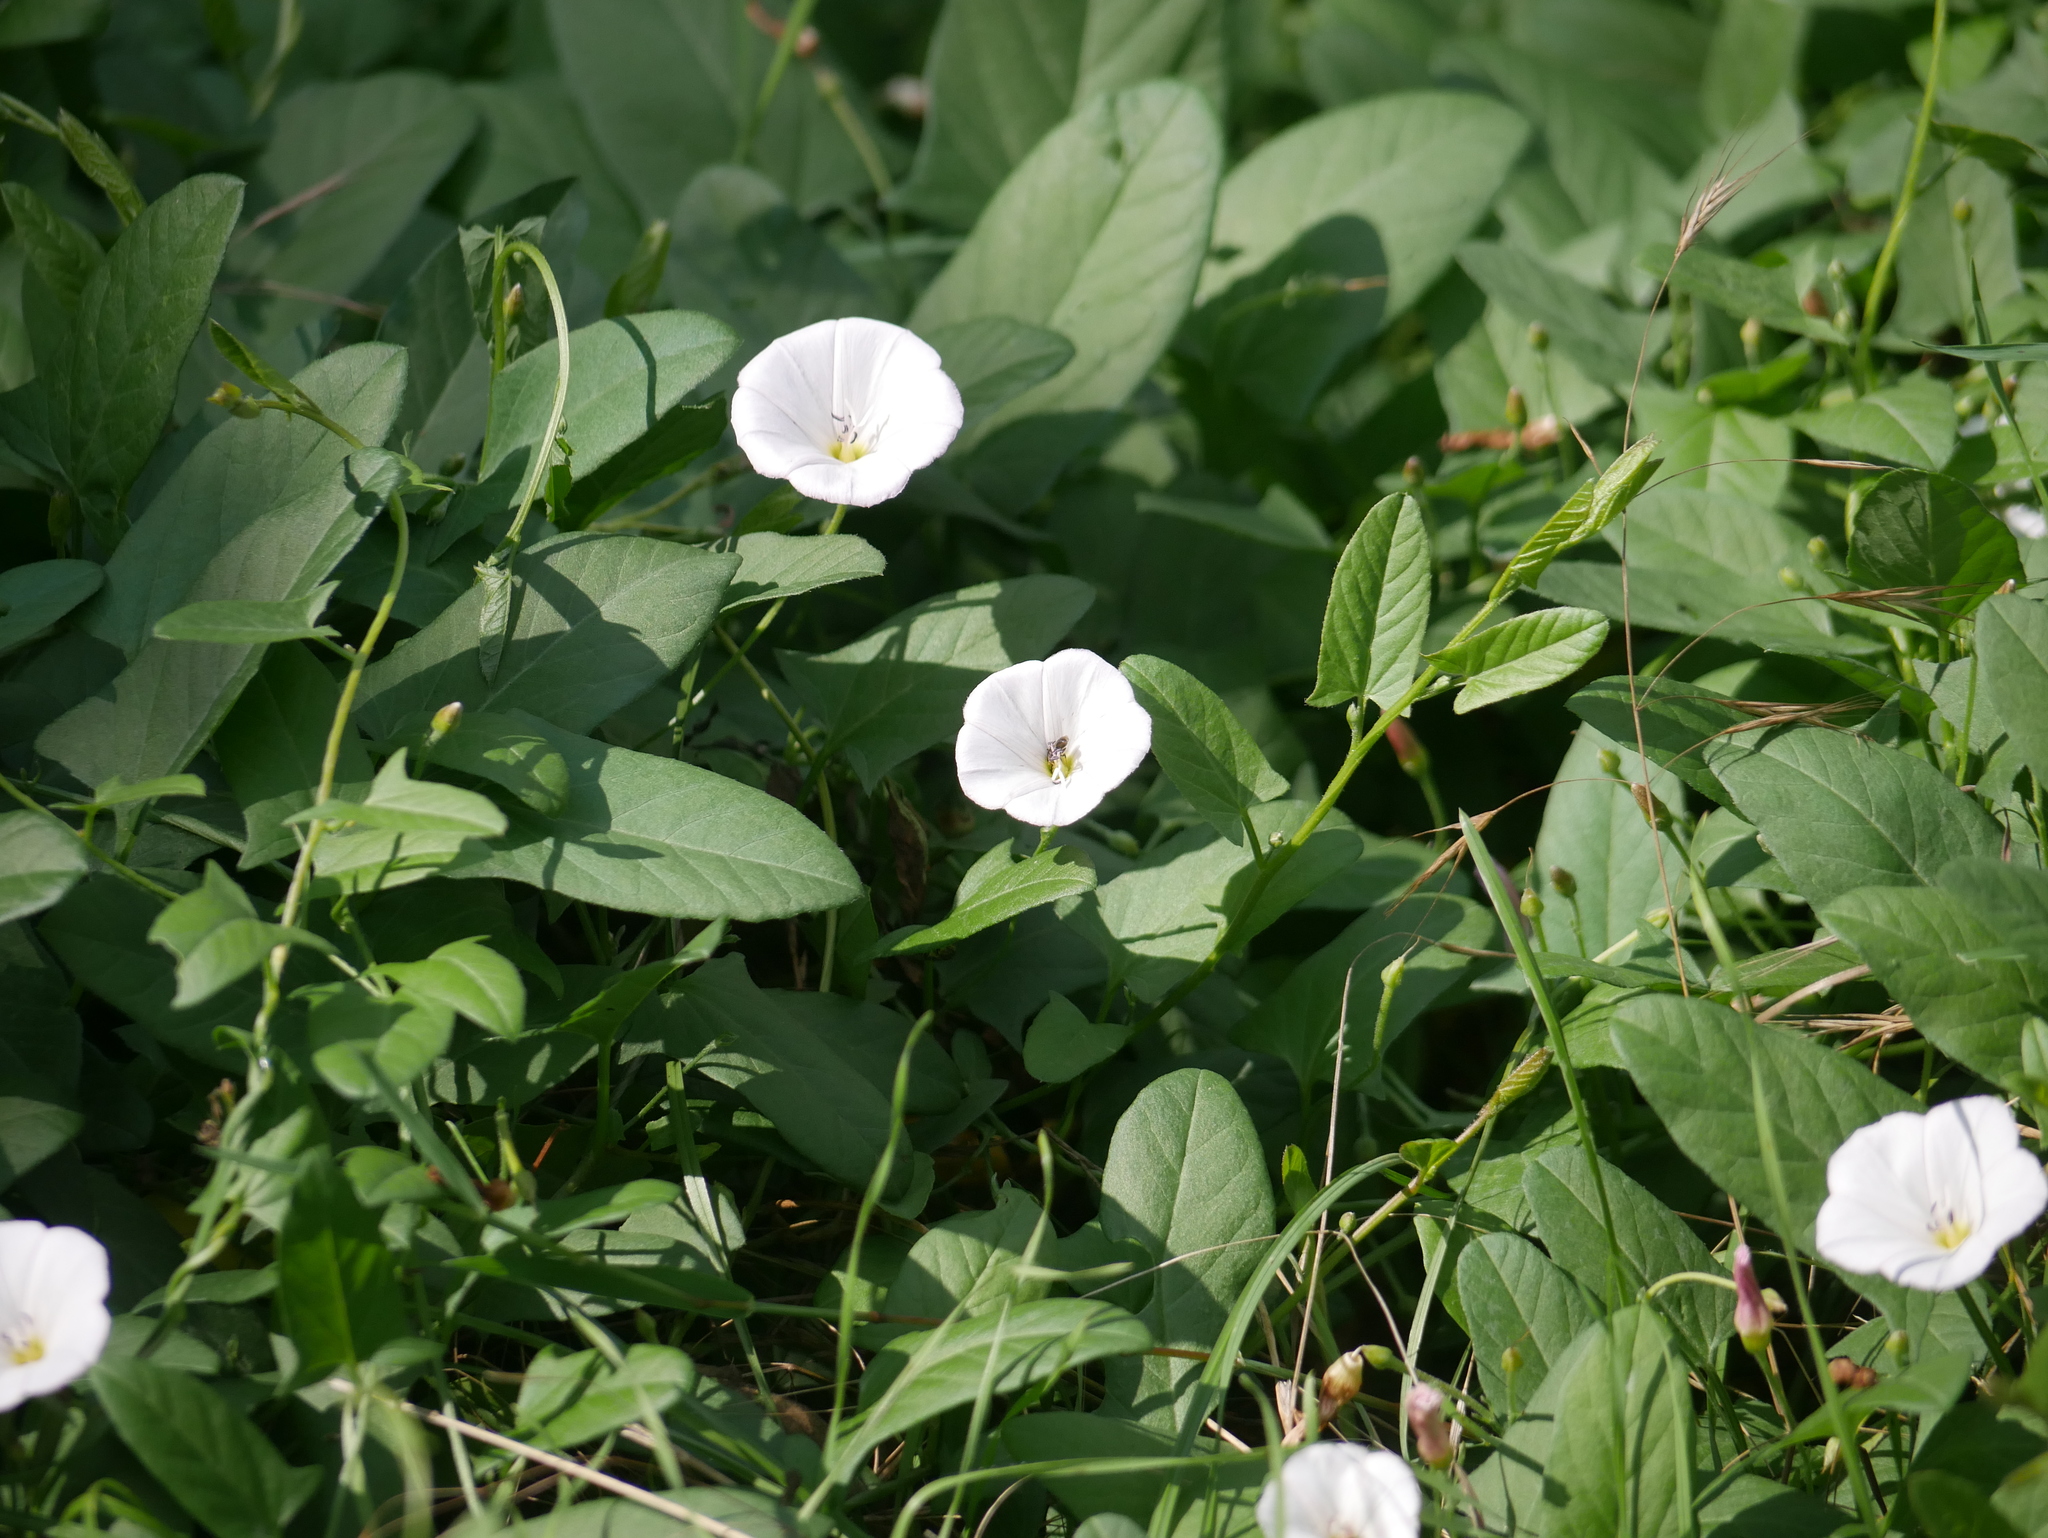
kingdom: Plantae
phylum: Tracheophyta
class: Magnoliopsida
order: Solanales
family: Convolvulaceae
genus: Convolvulus
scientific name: Convolvulus arvensis
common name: Field bindweed
